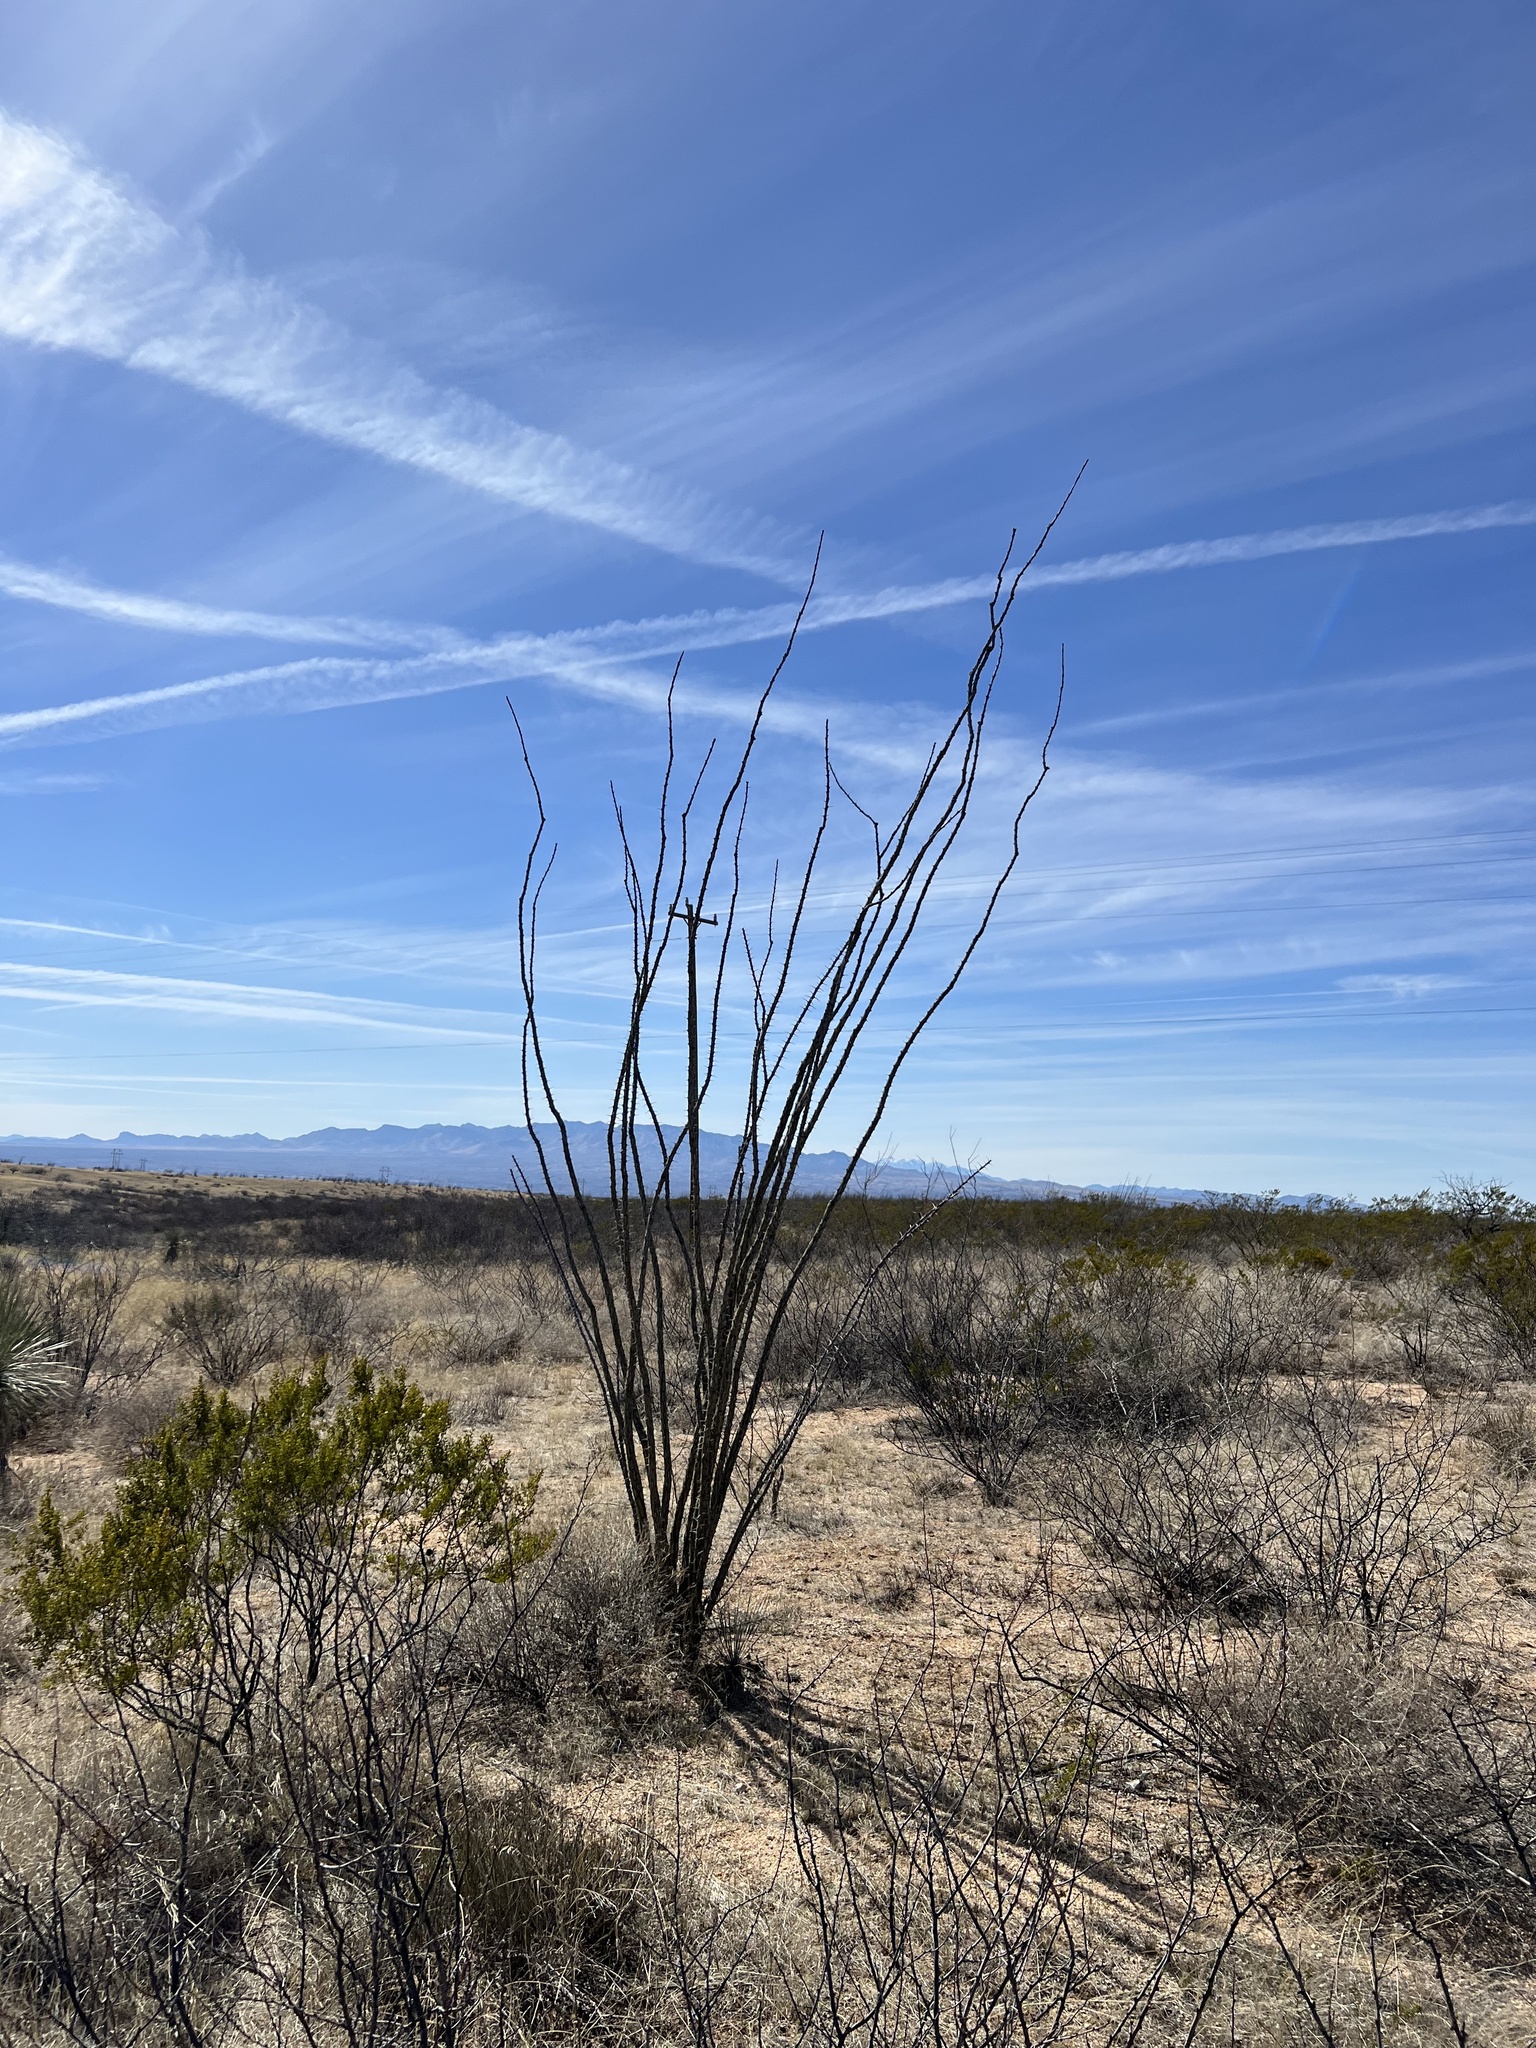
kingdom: Plantae
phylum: Tracheophyta
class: Magnoliopsida
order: Ericales
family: Fouquieriaceae
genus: Fouquieria
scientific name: Fouquieria splendens
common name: Vine-cactus
